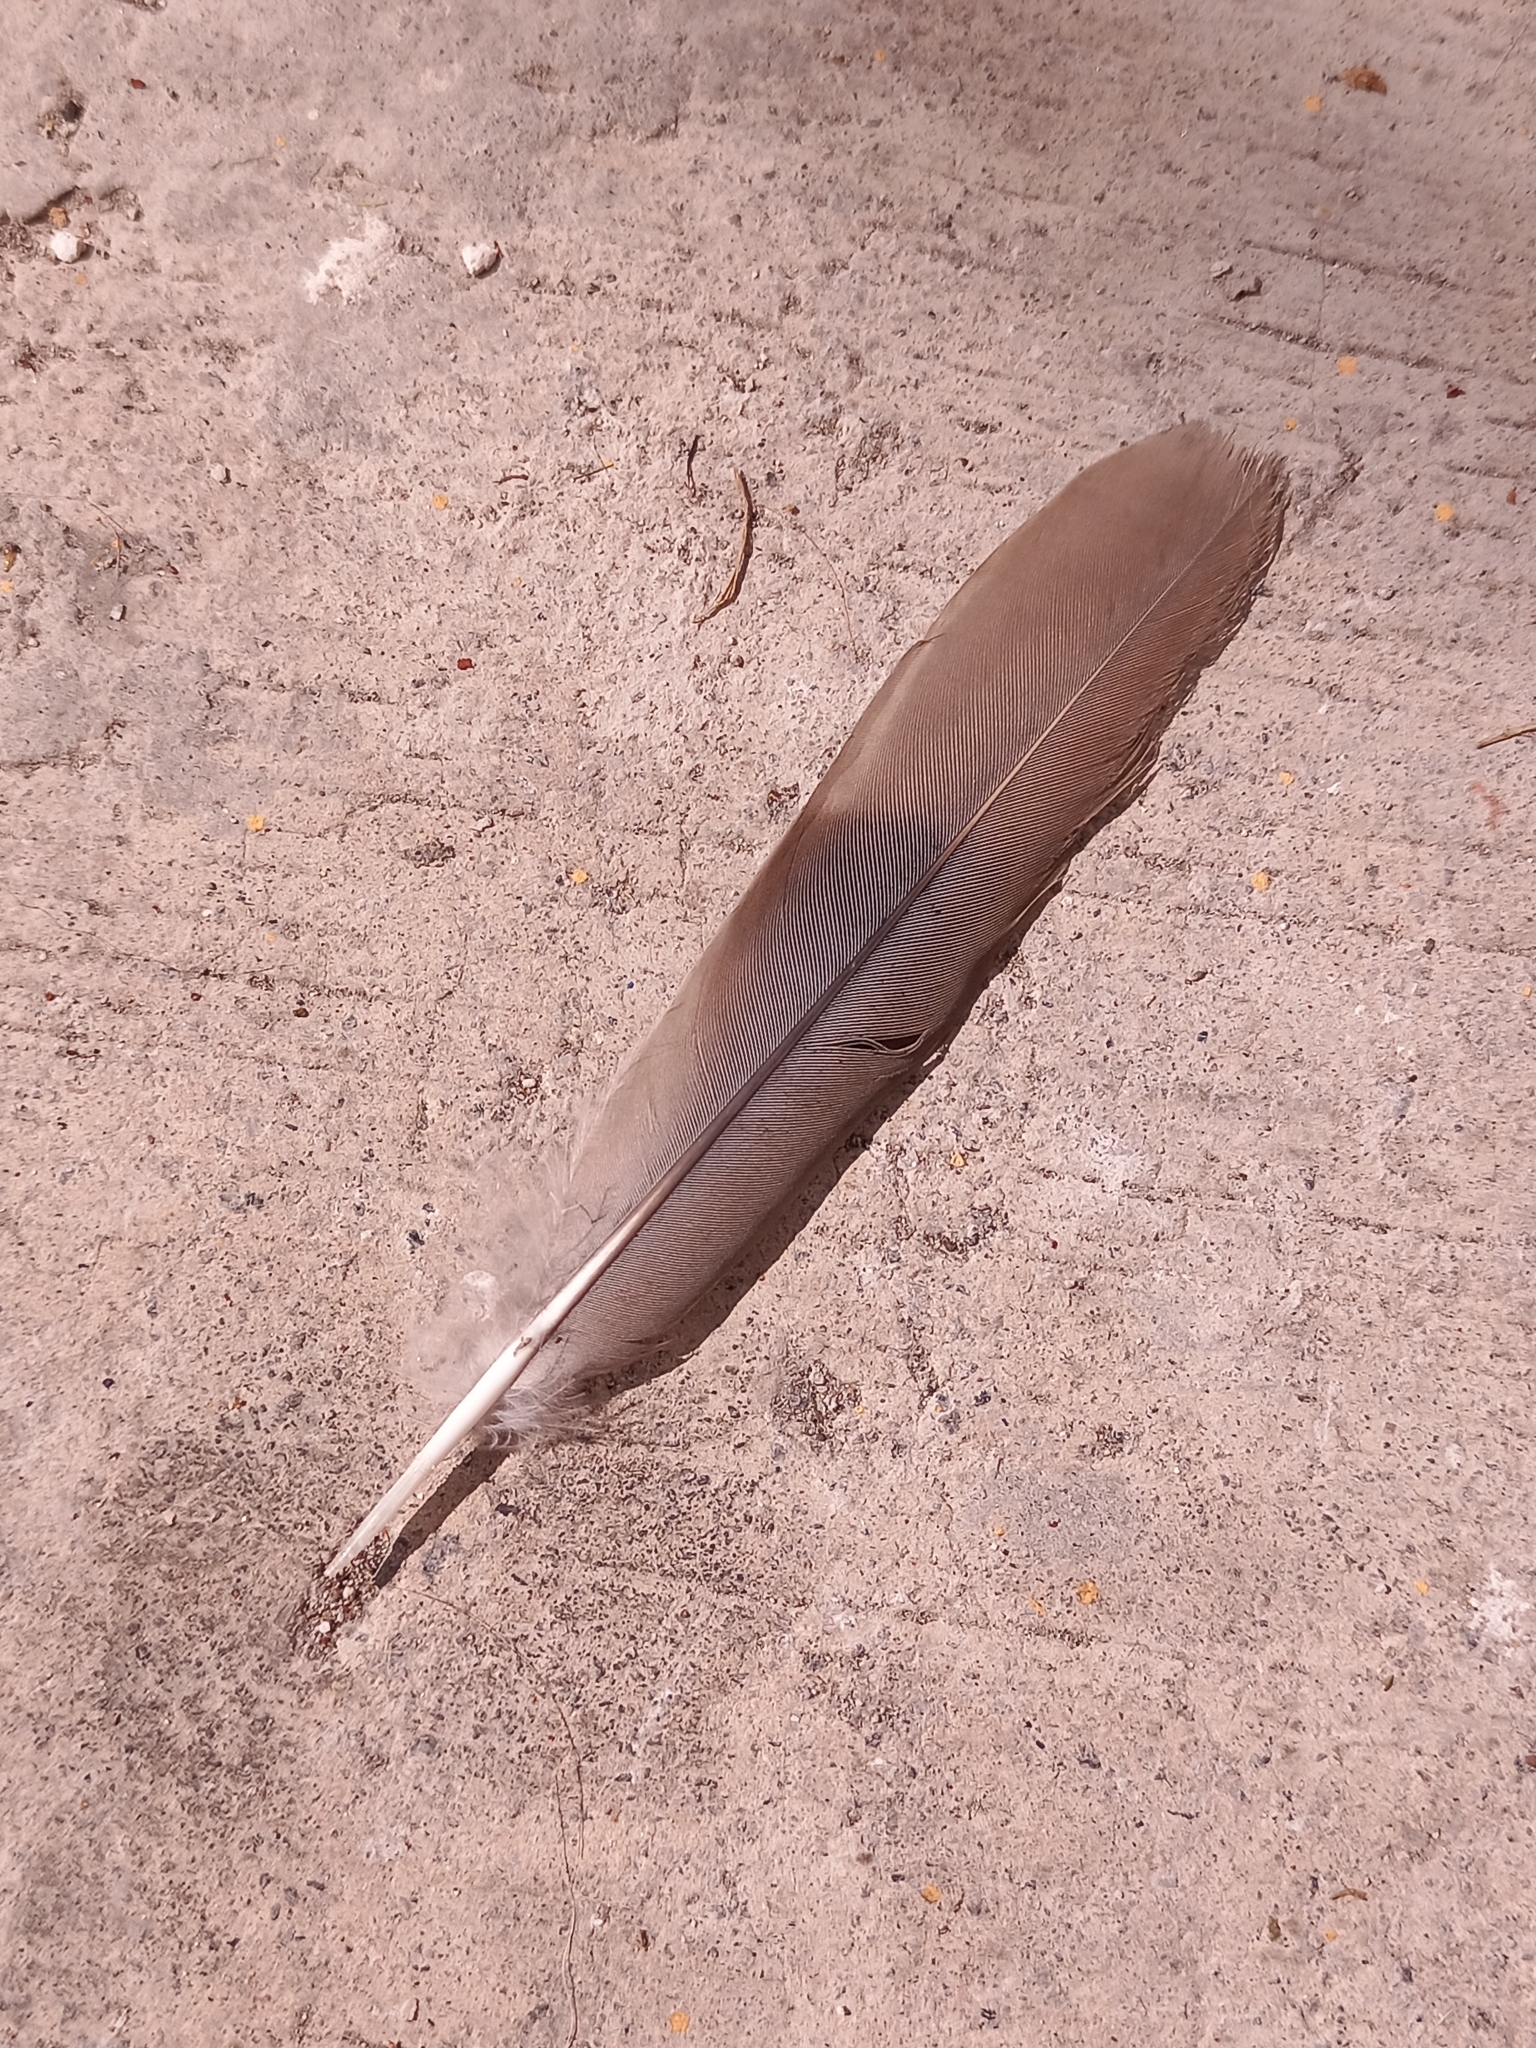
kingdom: Animalia
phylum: Chordata
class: Aves
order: Columbiformes
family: Columbidae
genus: Streptopelia
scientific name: Streptopelia decaocto
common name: Eurasian collared dove
